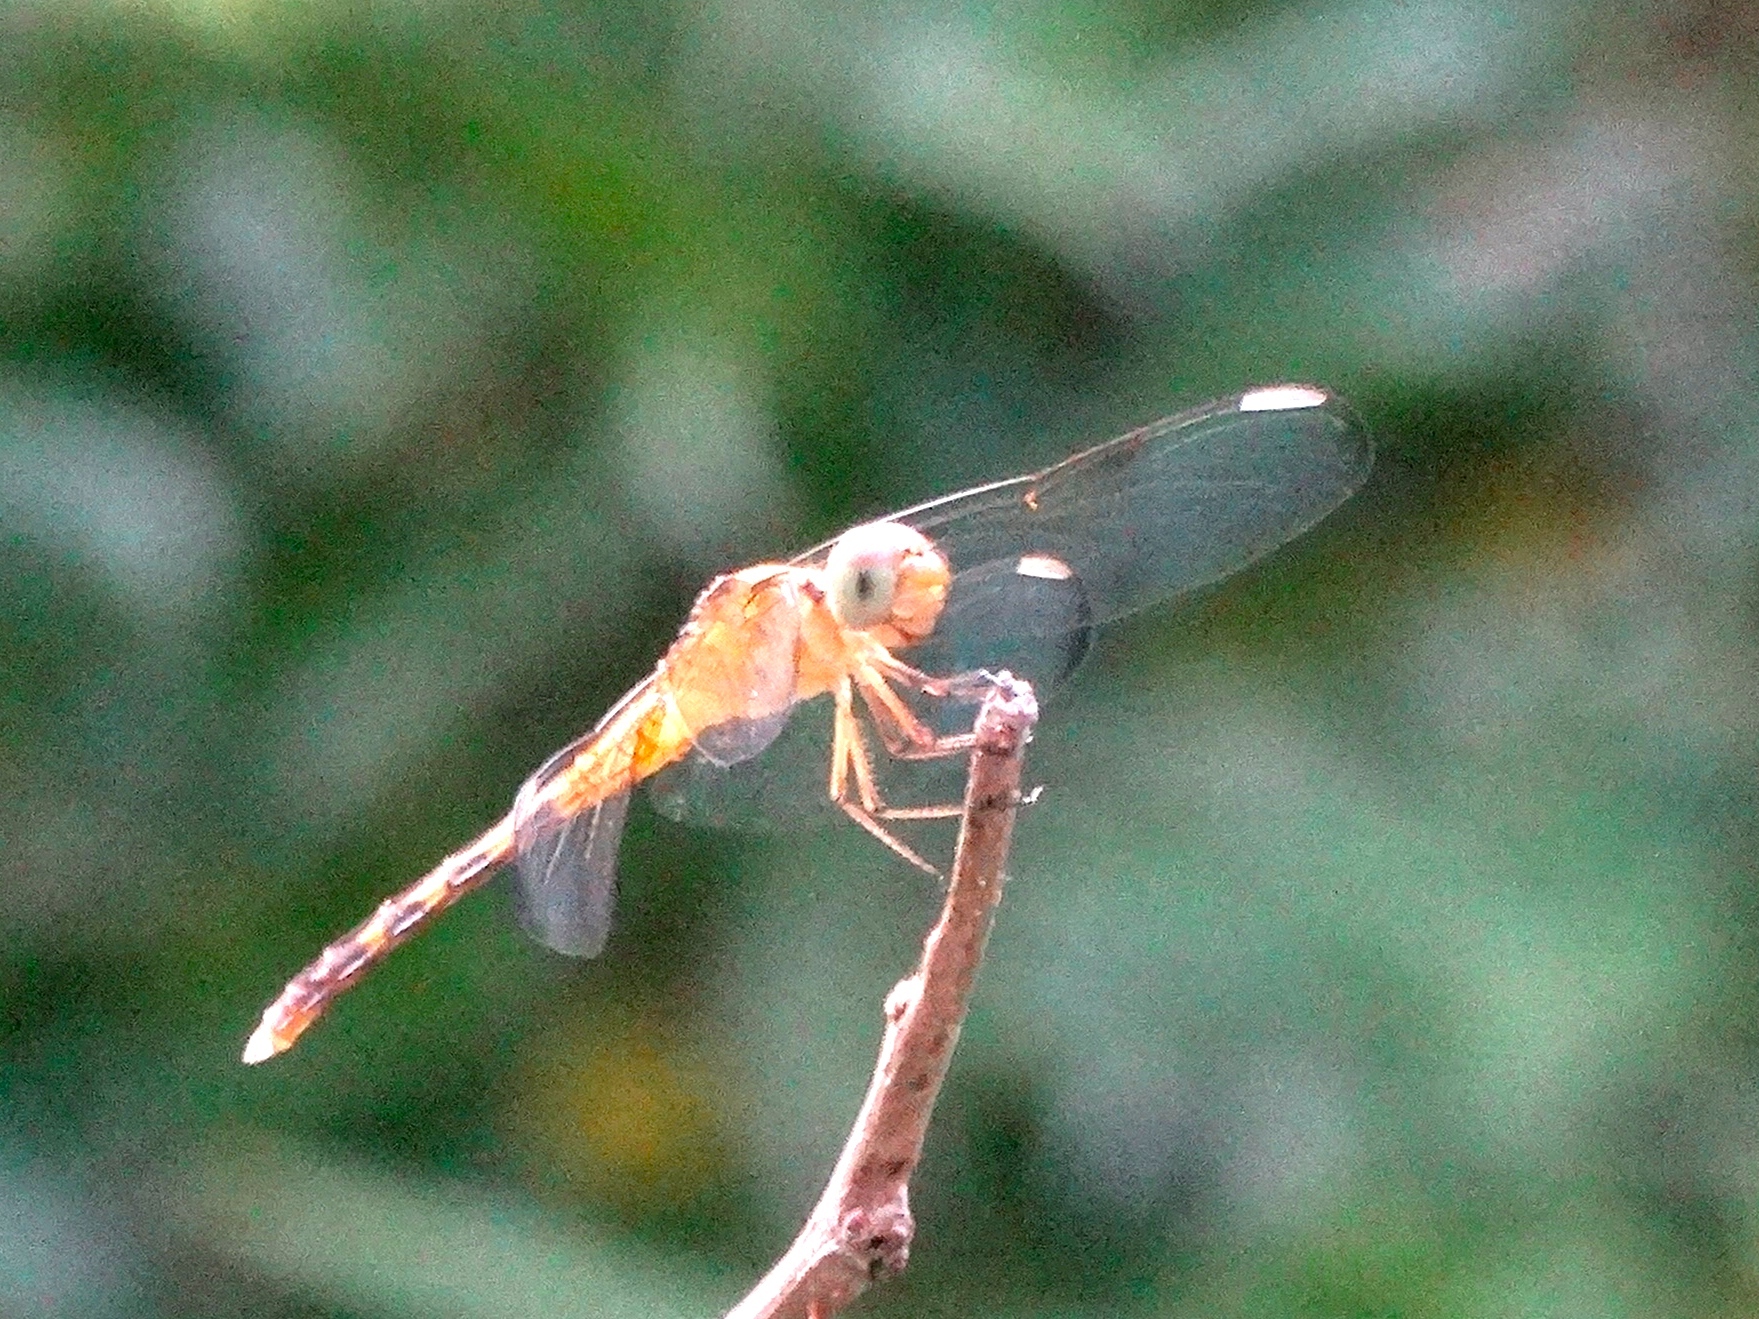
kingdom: Animalia
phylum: Arthropoda
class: Insecta
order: Odonata
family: Libellulidae
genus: Erythrodiplax
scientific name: Erythrodiplax
